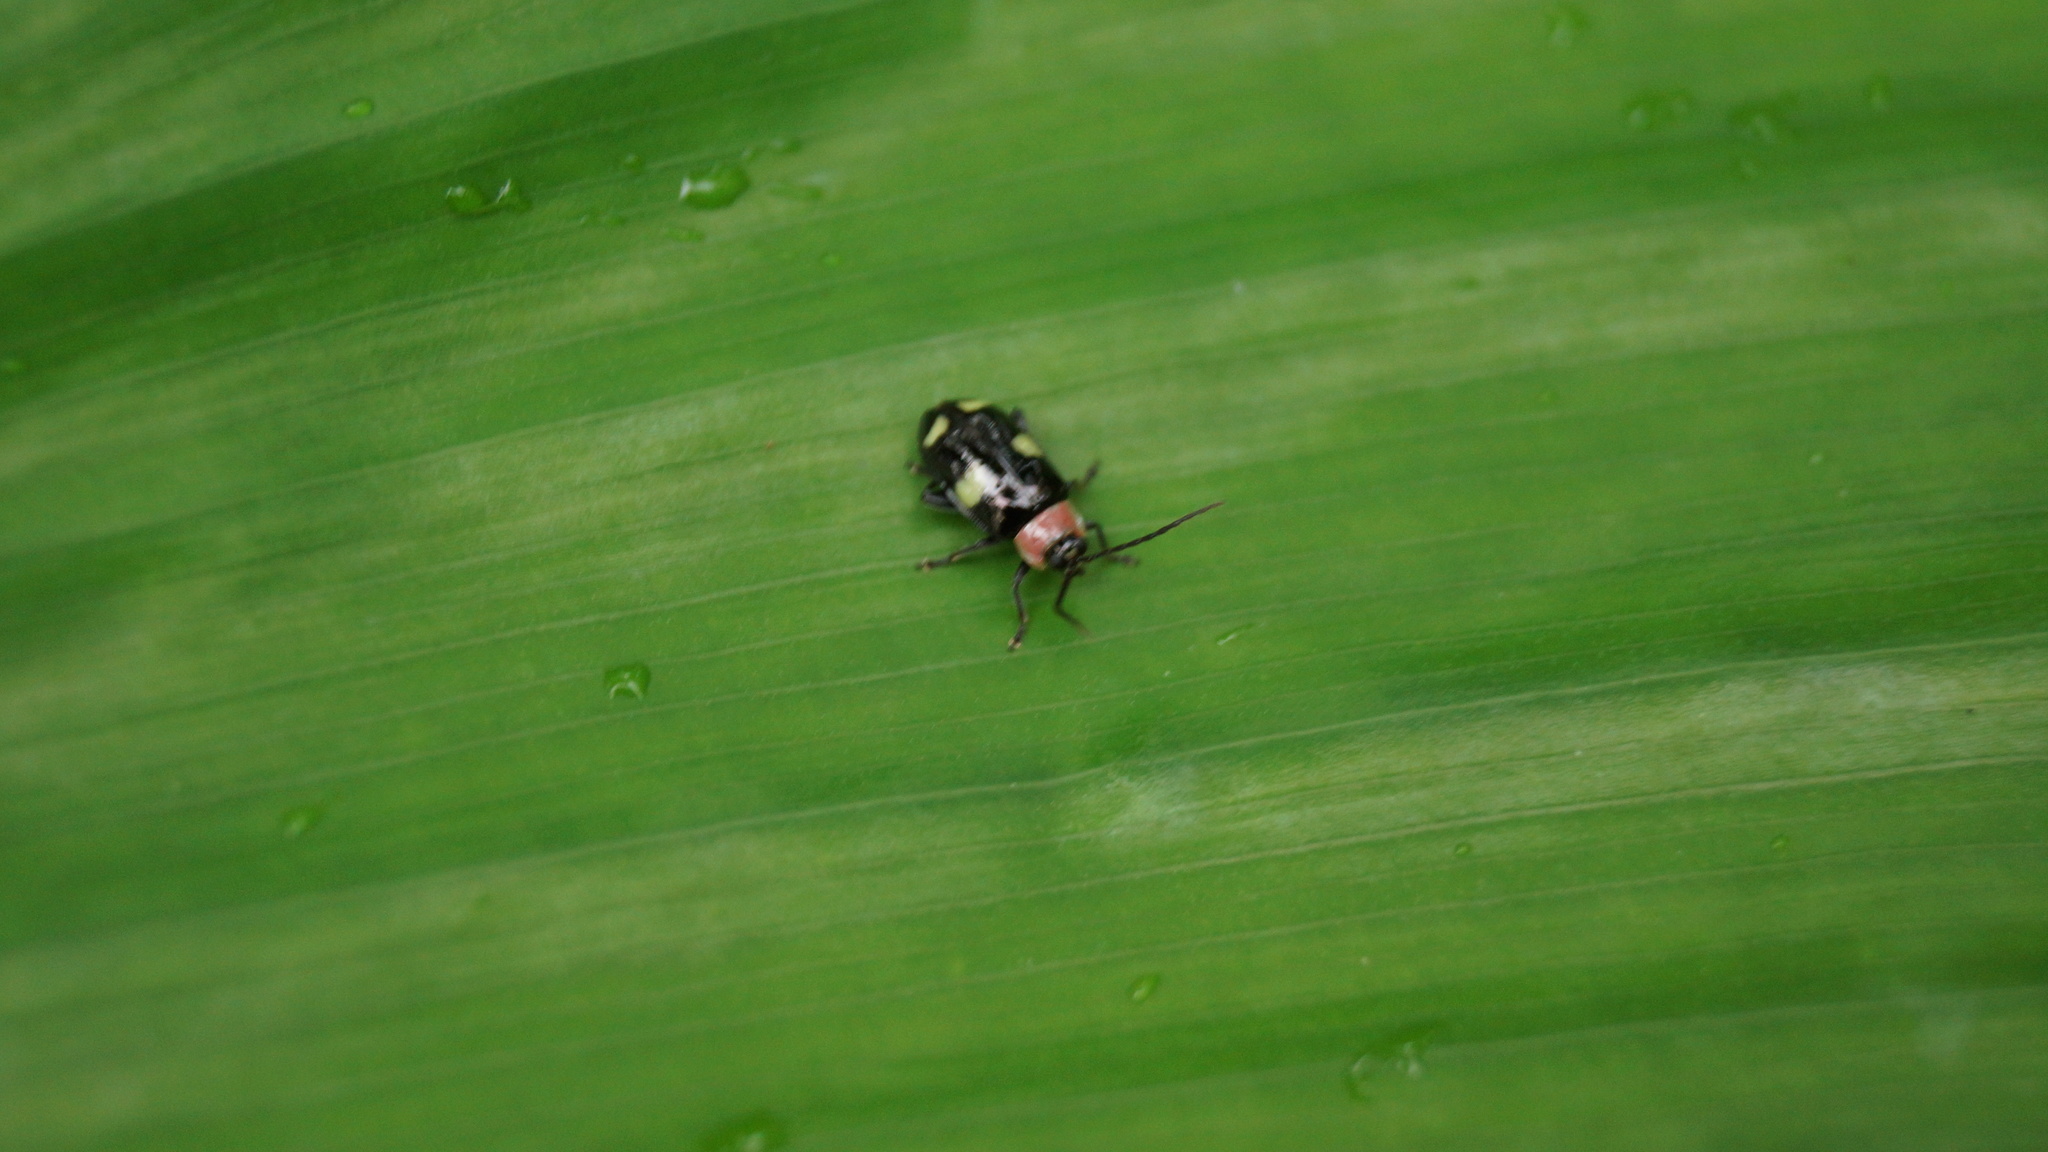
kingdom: Animalia
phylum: Arthropoda
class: Insecta
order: Coleoptera
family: Chrysomelidae
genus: Omophoita
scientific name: Omophoita
